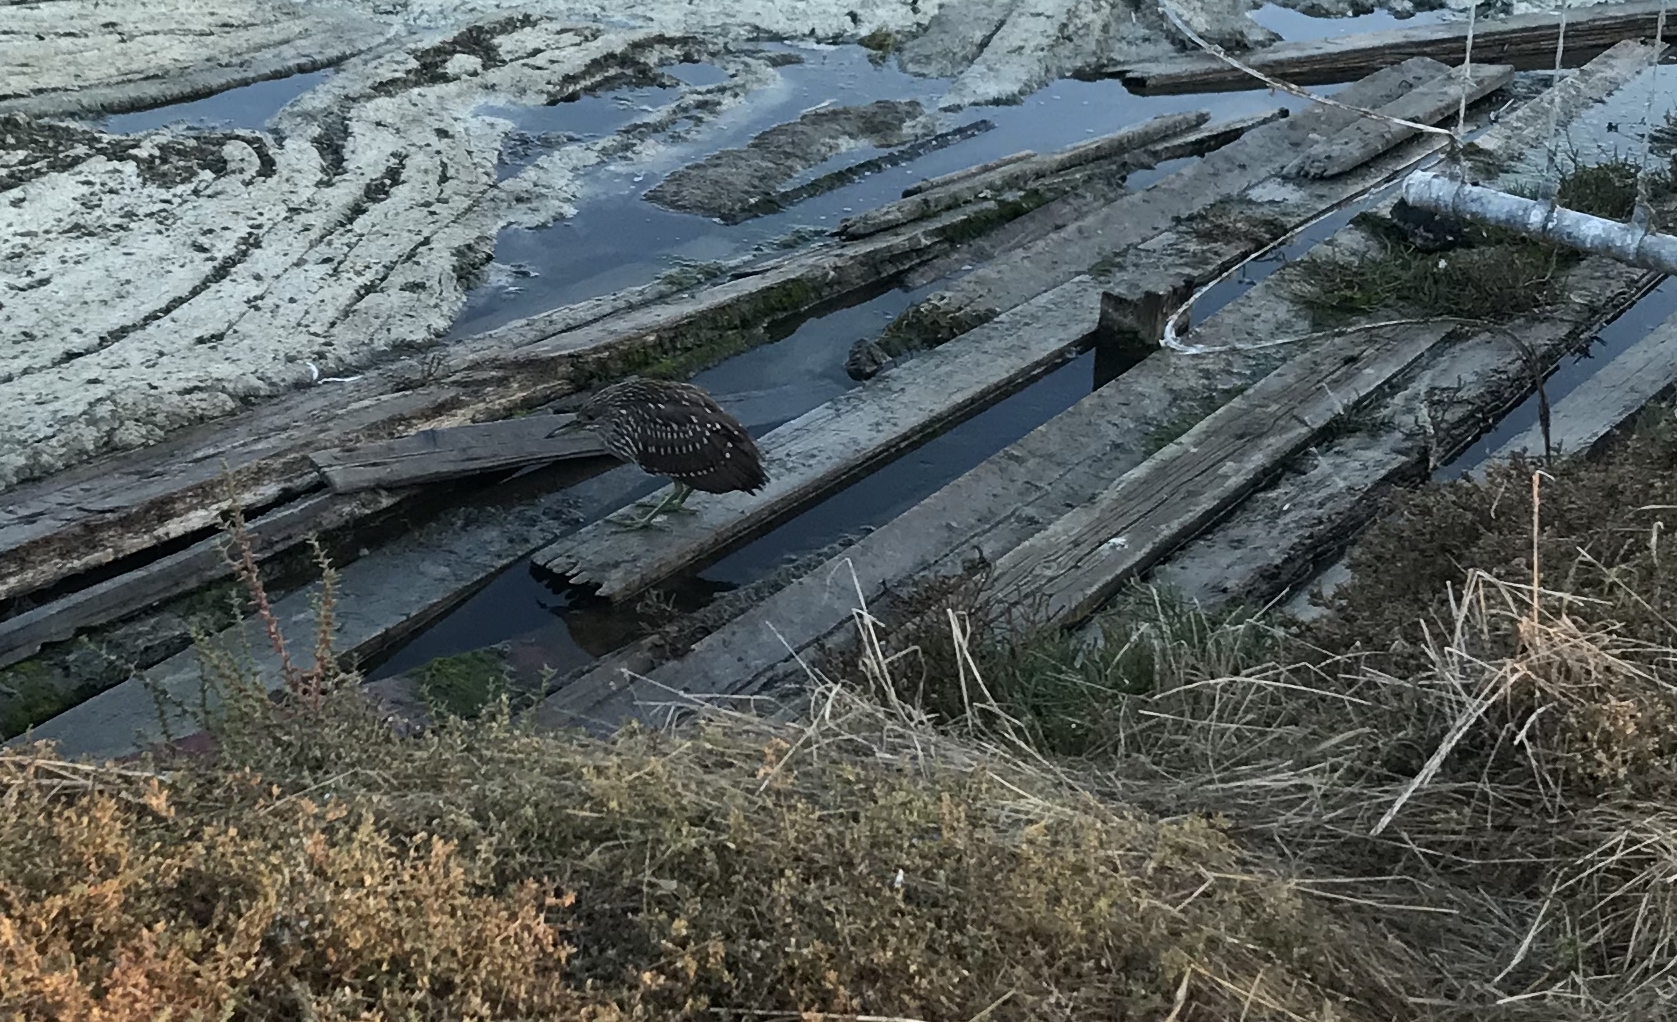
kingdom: Animalia
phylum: Chordata
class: Aves
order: Pelecaniformes
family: Ardeidae
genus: Nycticorax
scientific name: Nycticorax nycticorax
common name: Black-crowned night heron
